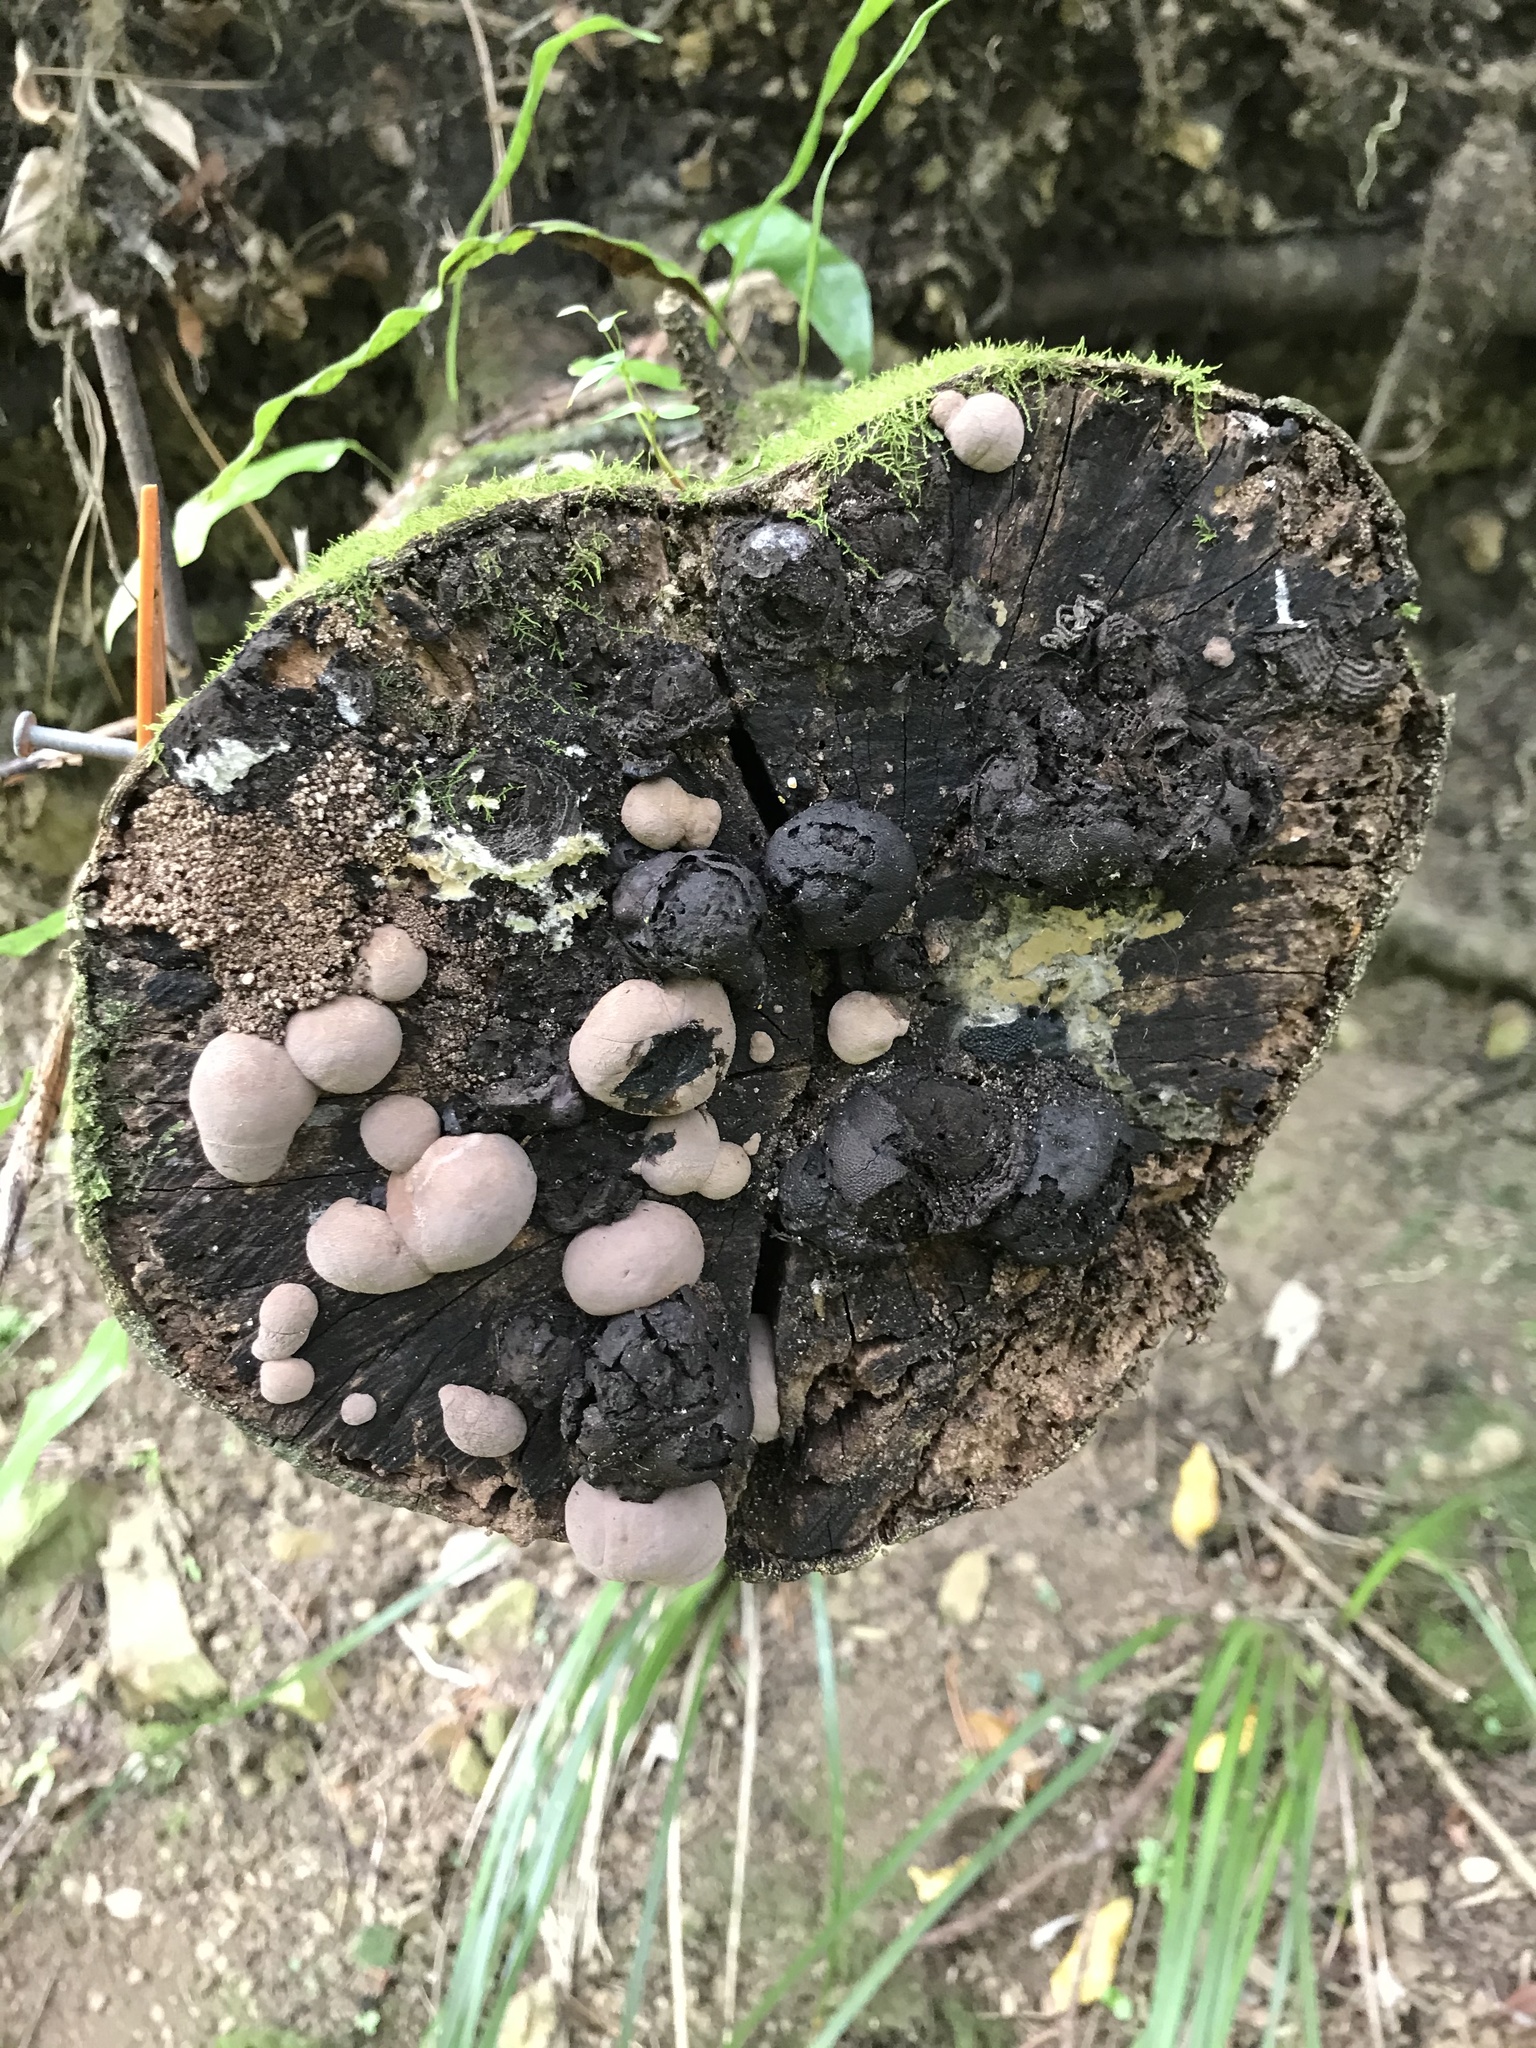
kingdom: Fungi
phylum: Ascomycota
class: Sordariomycetes
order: Xylariales
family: Hypoxylaceae
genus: Daldinia
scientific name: Daldinia
